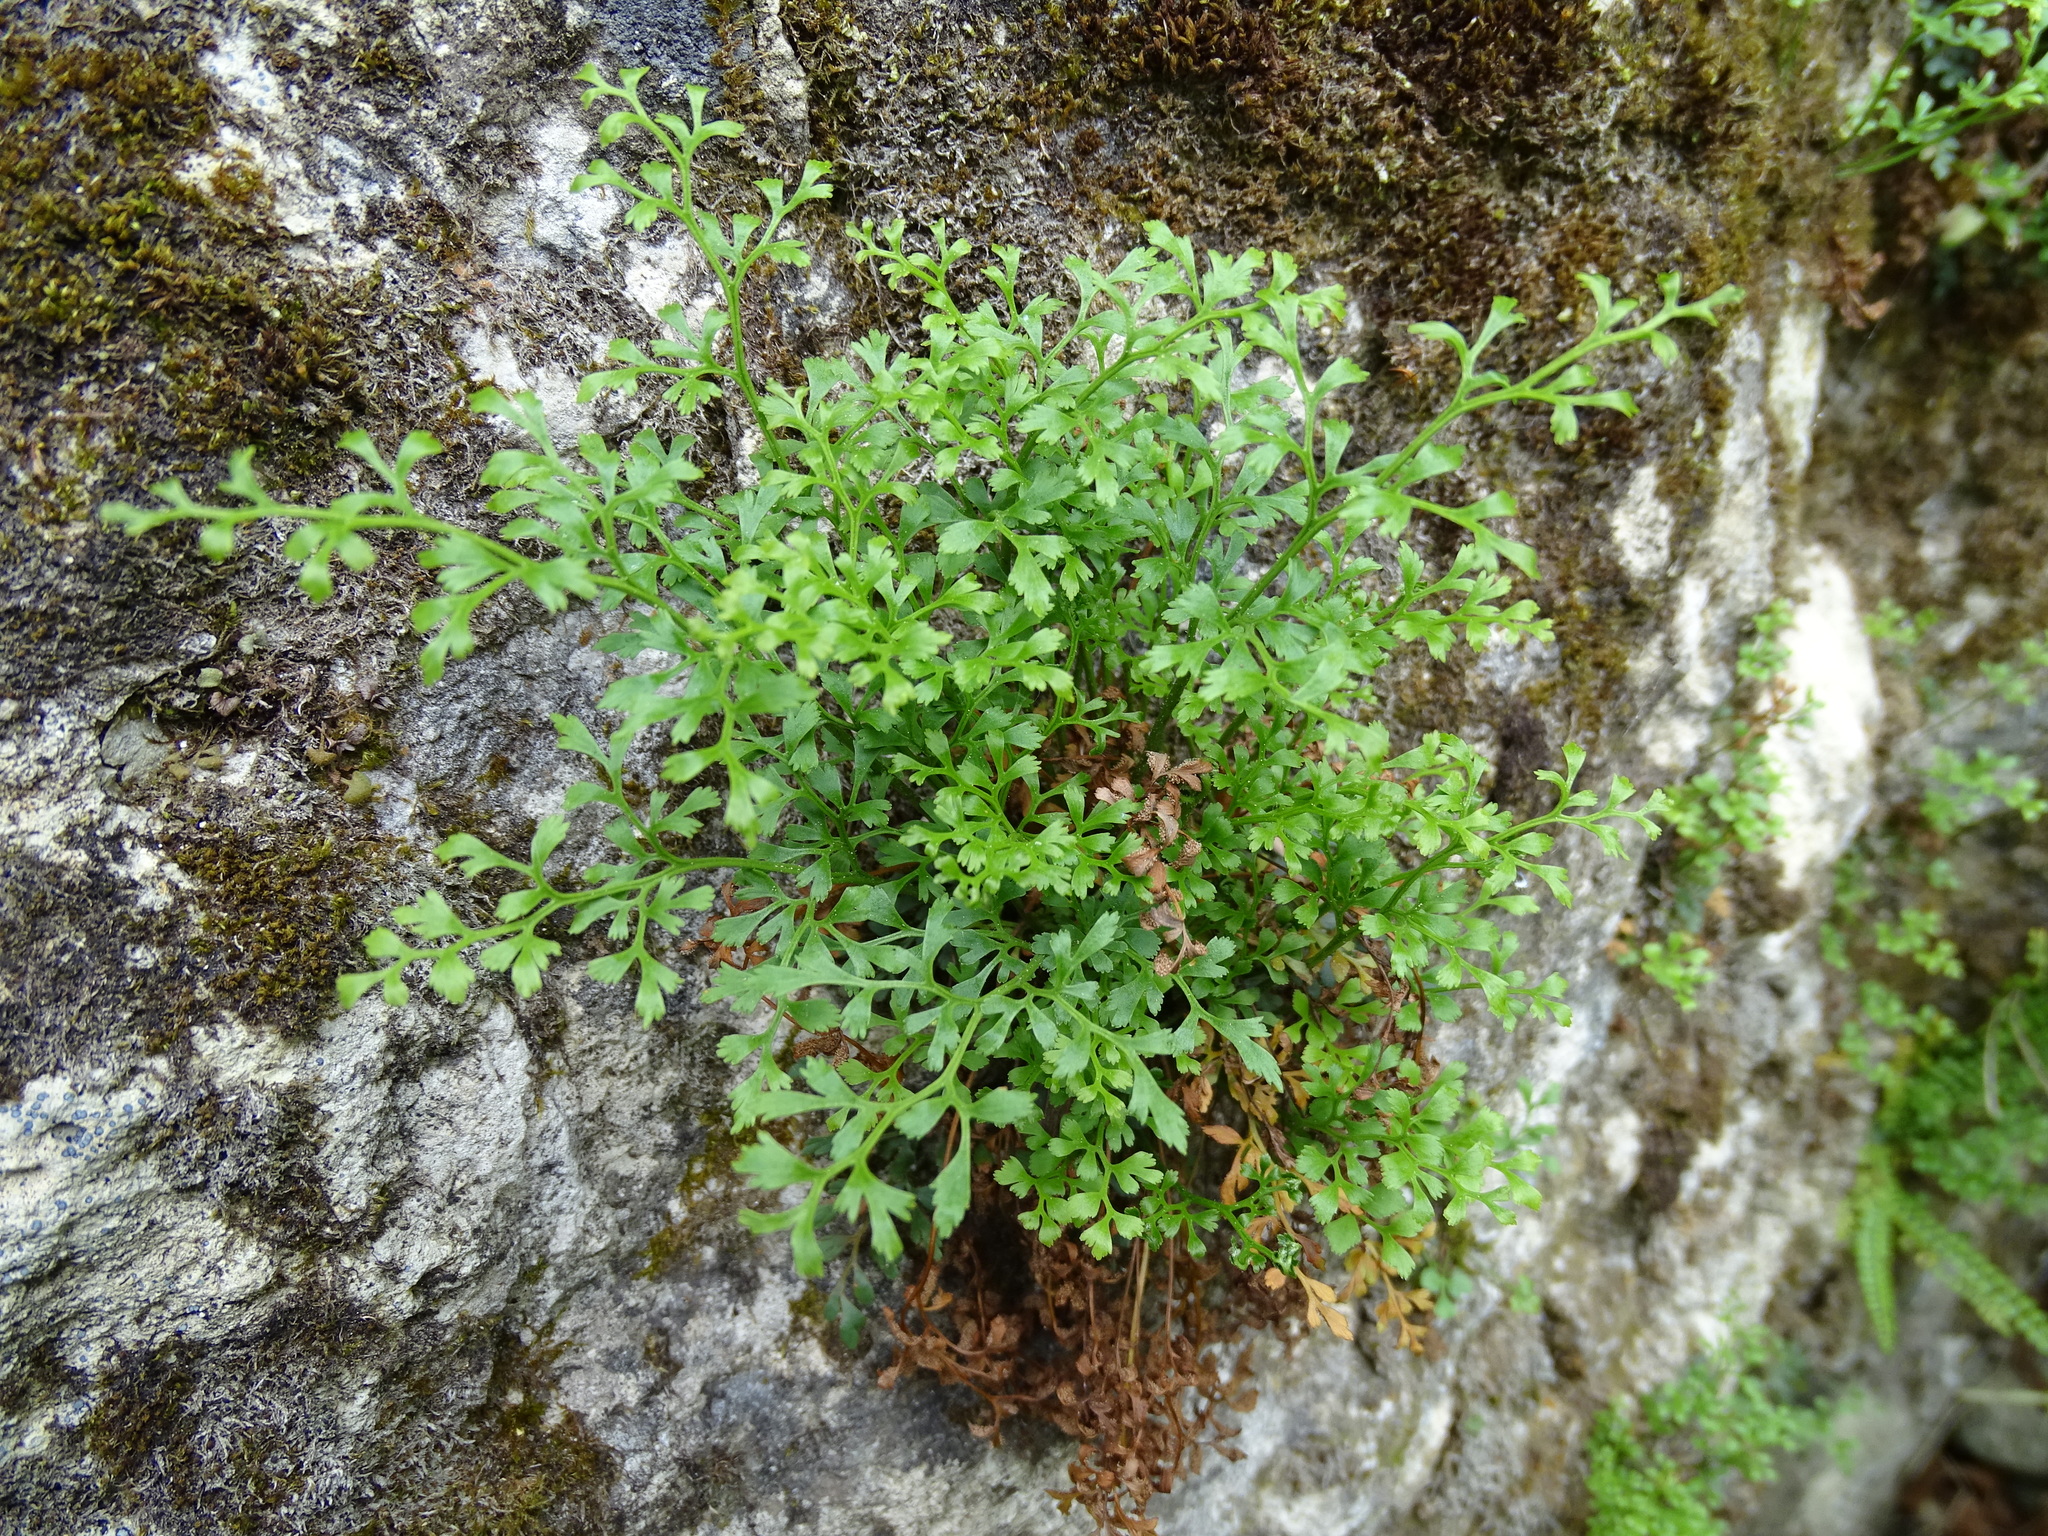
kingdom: Plantae
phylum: Tracheophyta
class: Polypodiopsida
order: Polypodiales
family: Aspleniaceae
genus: Asplenium
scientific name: Asplenium ruta-muraria
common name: Wall-rue
